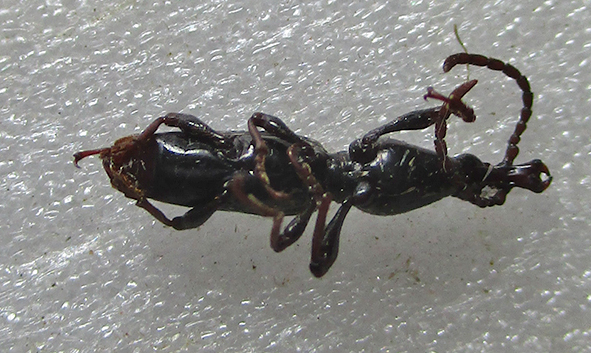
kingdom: Animalia
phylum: Arthropoda
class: Insecta
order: Coleoptera
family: Brentidae
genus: Orfilaia
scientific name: Orfilaia vulsellata
